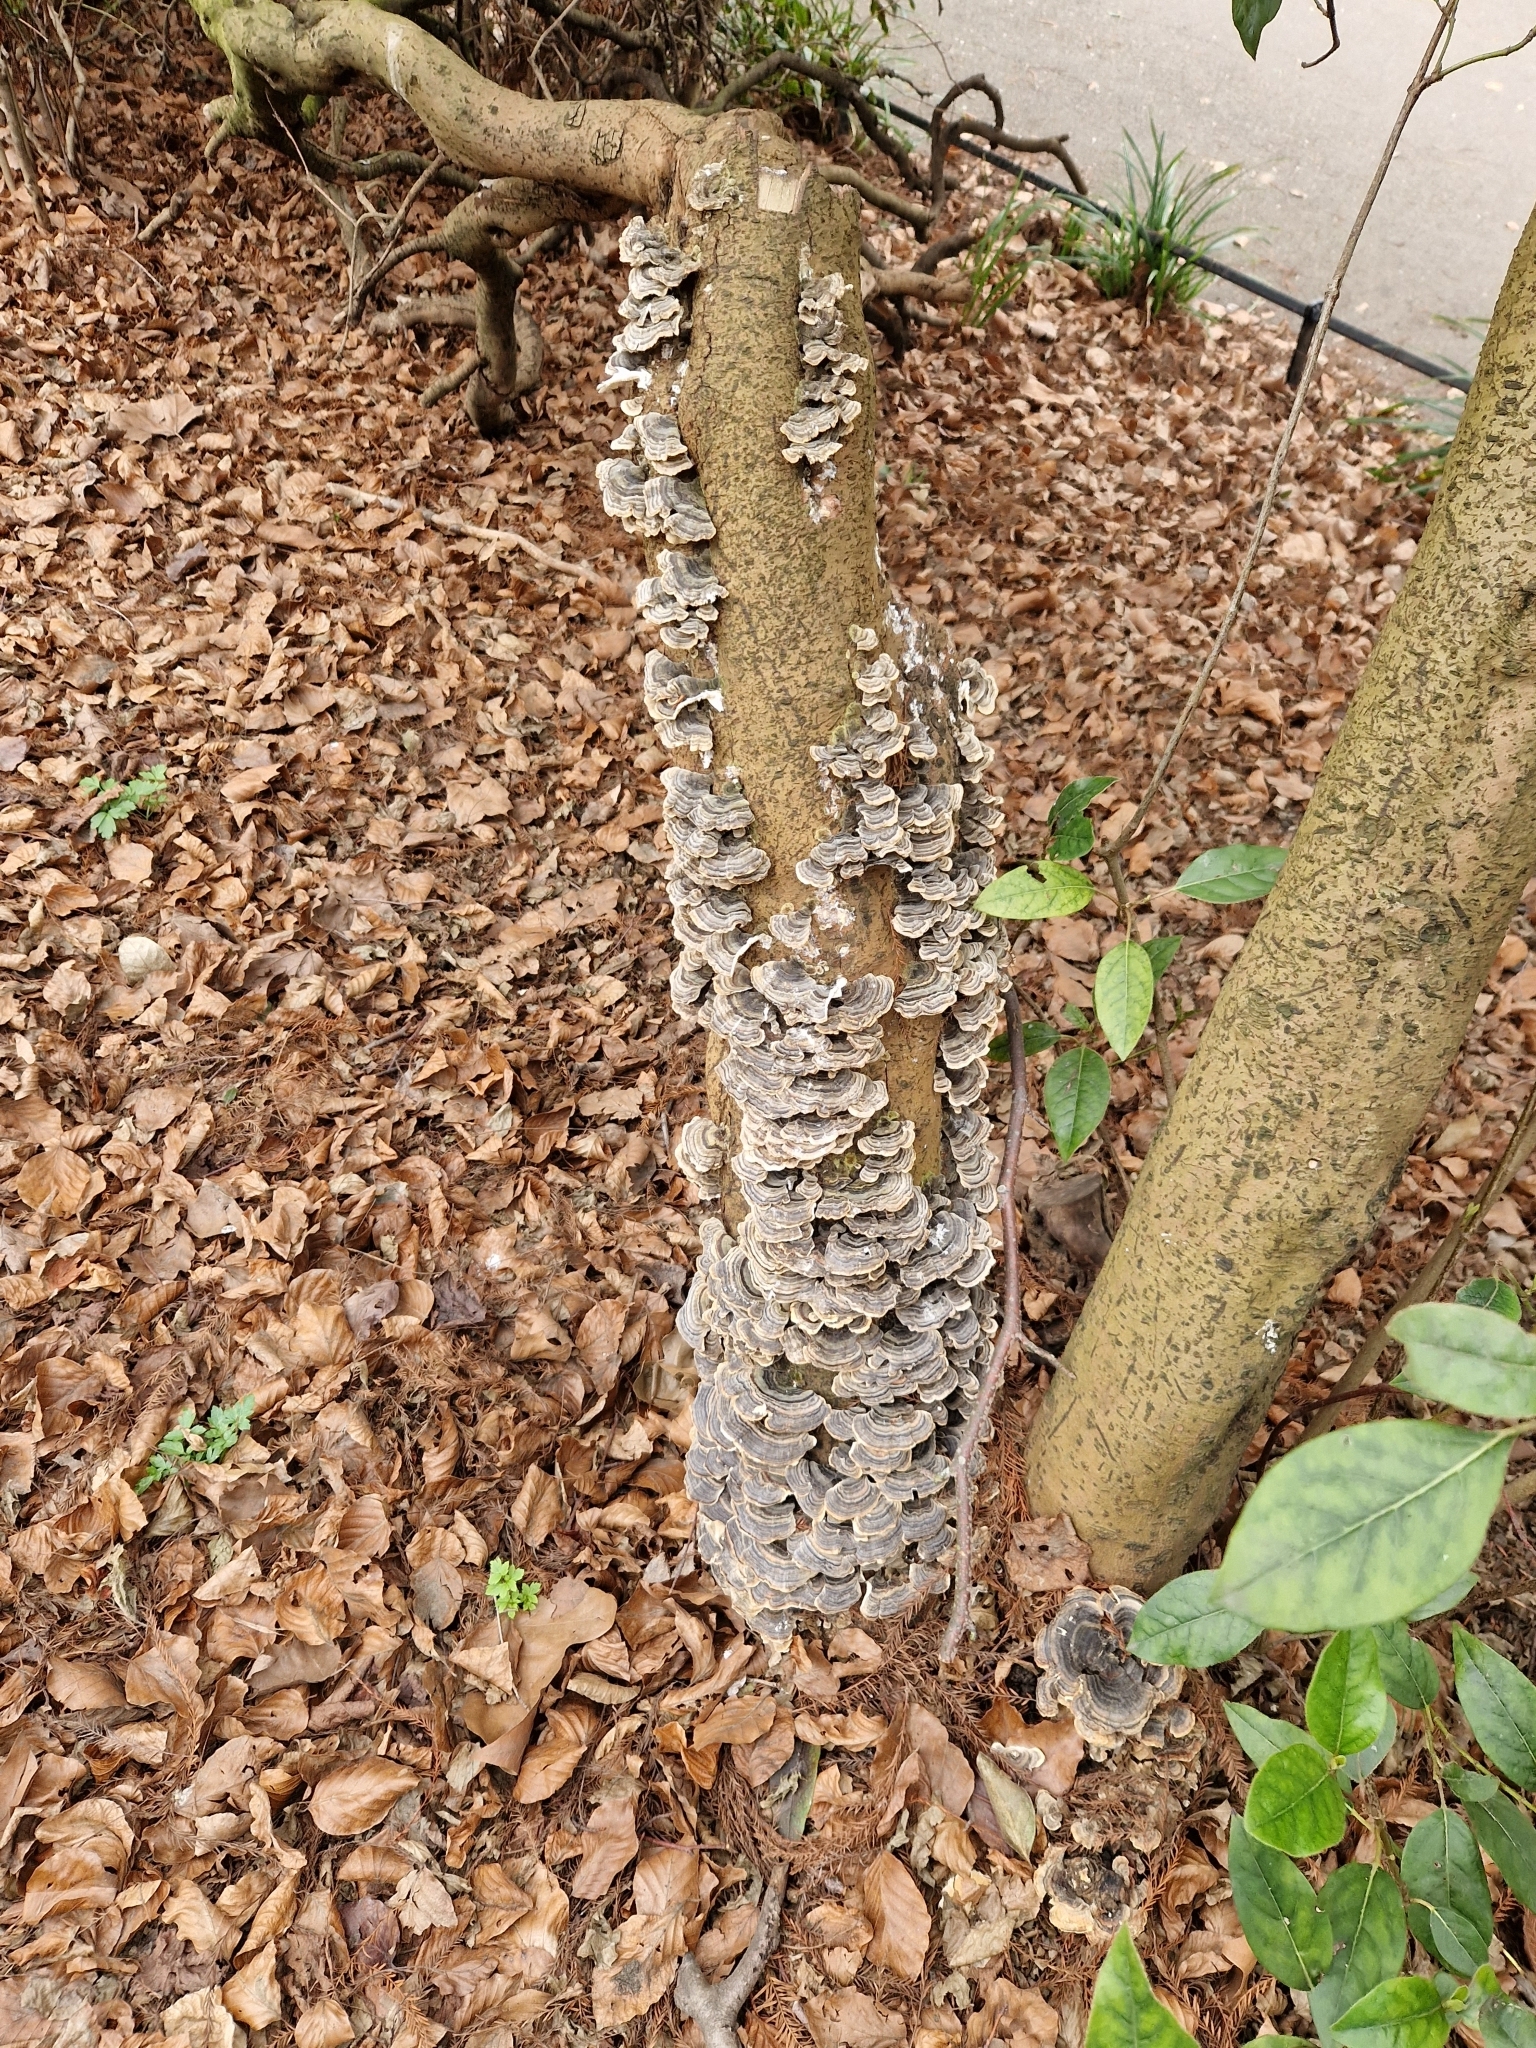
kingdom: Fungi
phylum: Basidiomycota
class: Agaricomycetes
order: Polyporales
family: Polyporaceae
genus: Trametes
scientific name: Trametes versicolor
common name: Turkeytail
